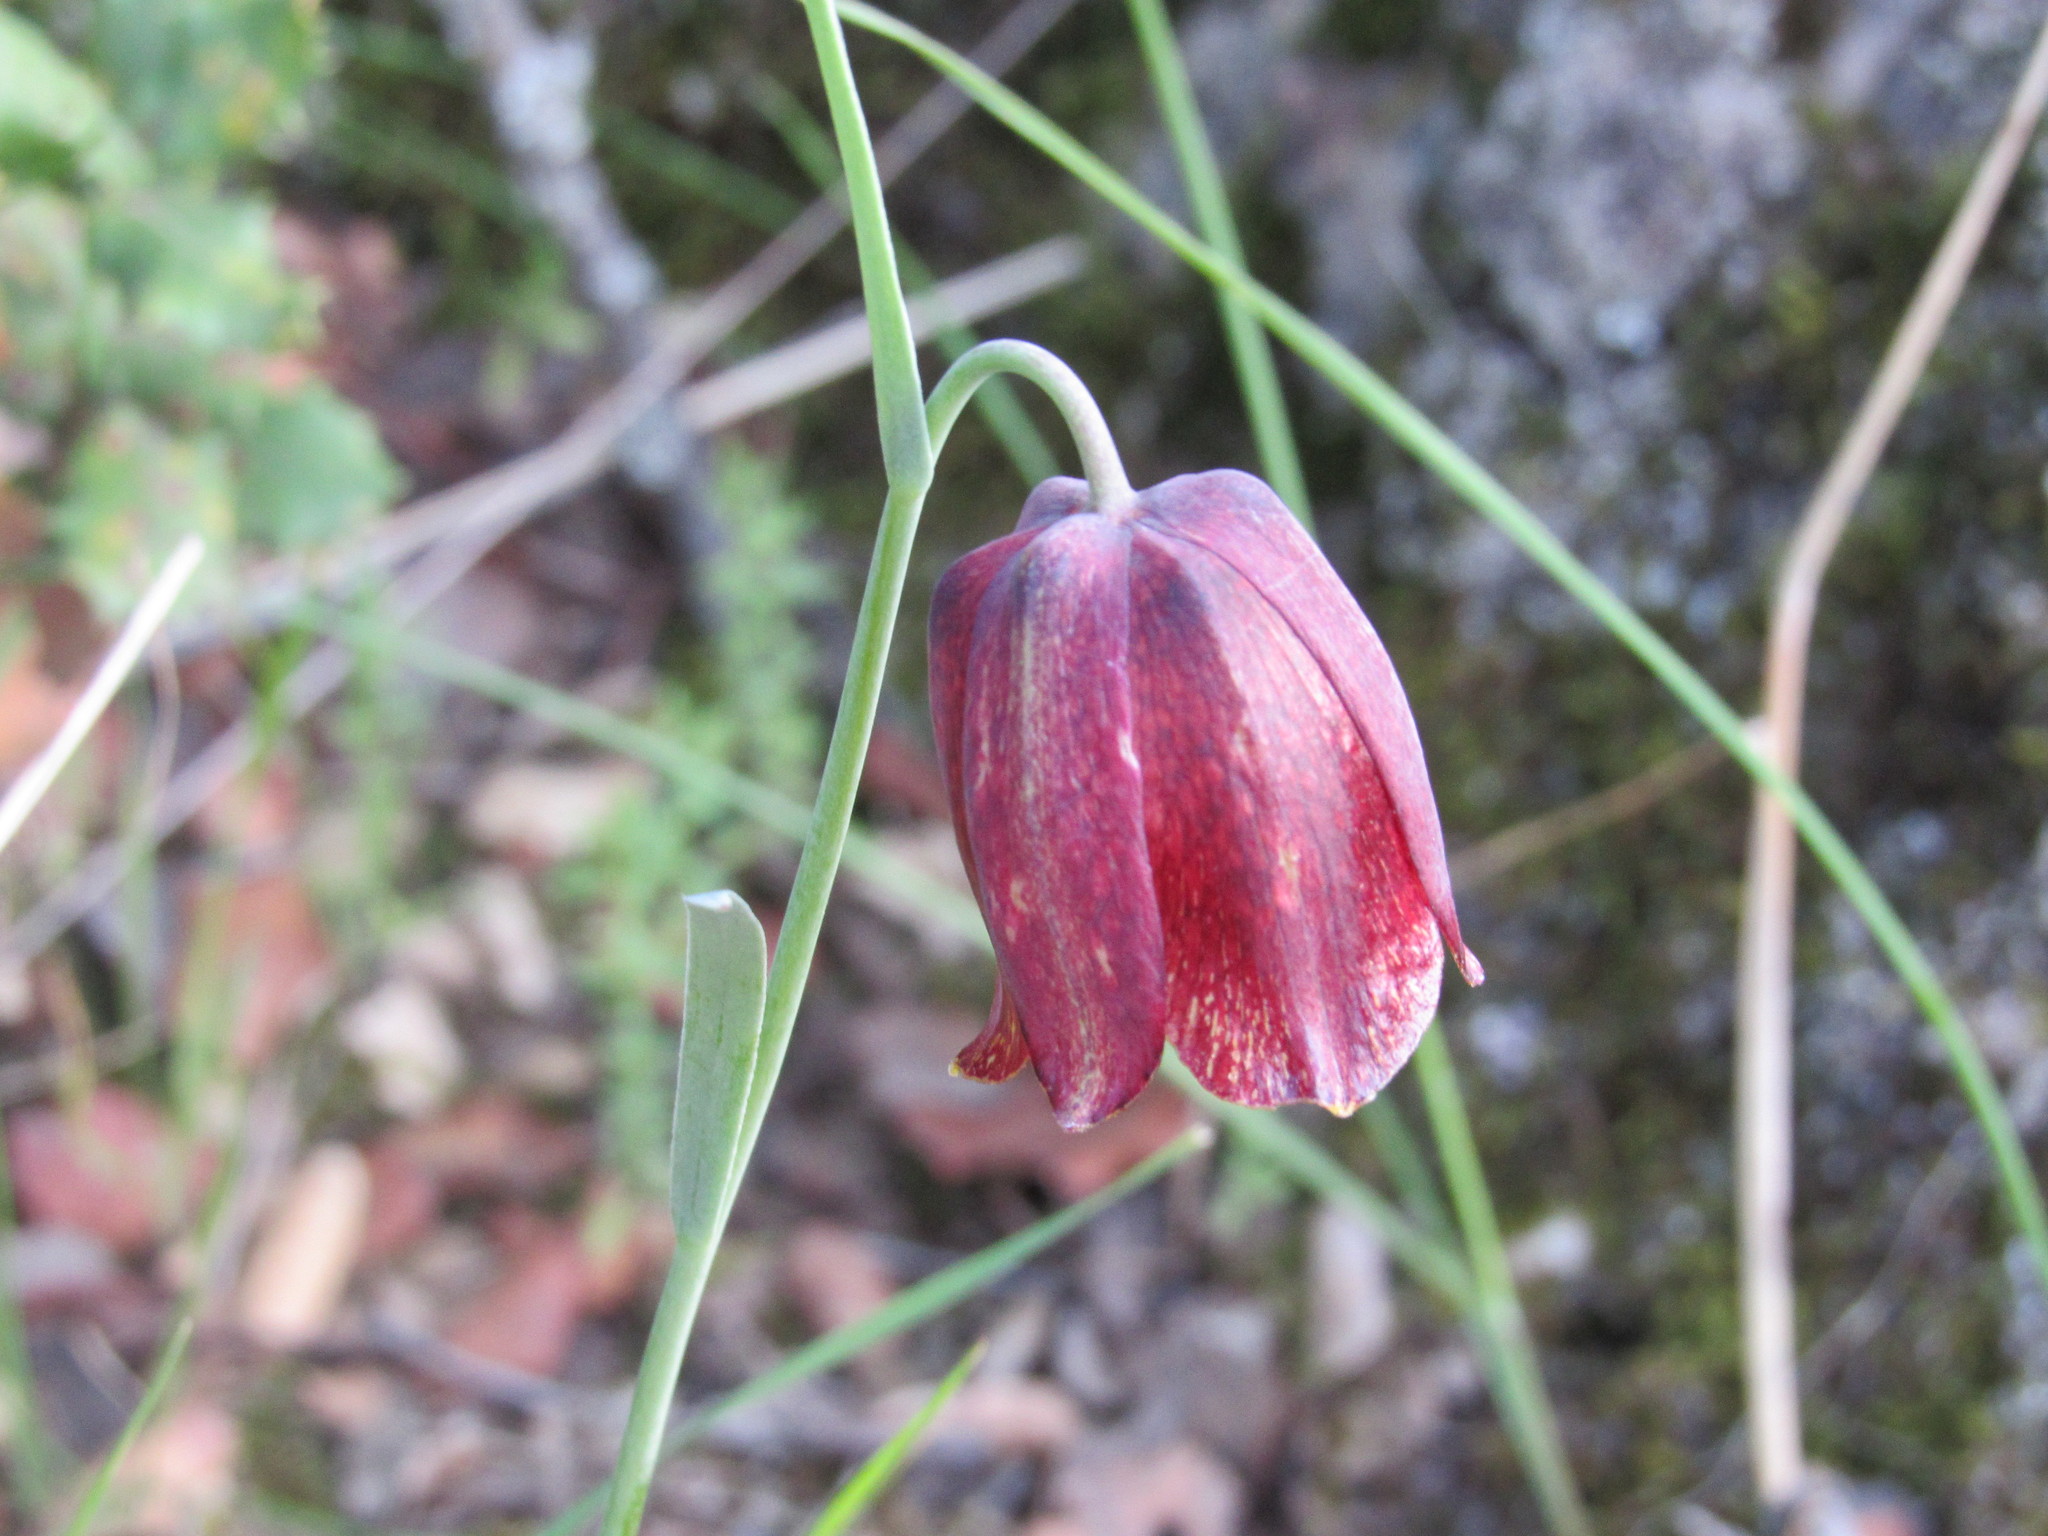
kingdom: Plantae
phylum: Tracheophyta
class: Liliopsida
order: Liliales
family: Liliaceae
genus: Fritillaria
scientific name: Fritillaria lusitanica
